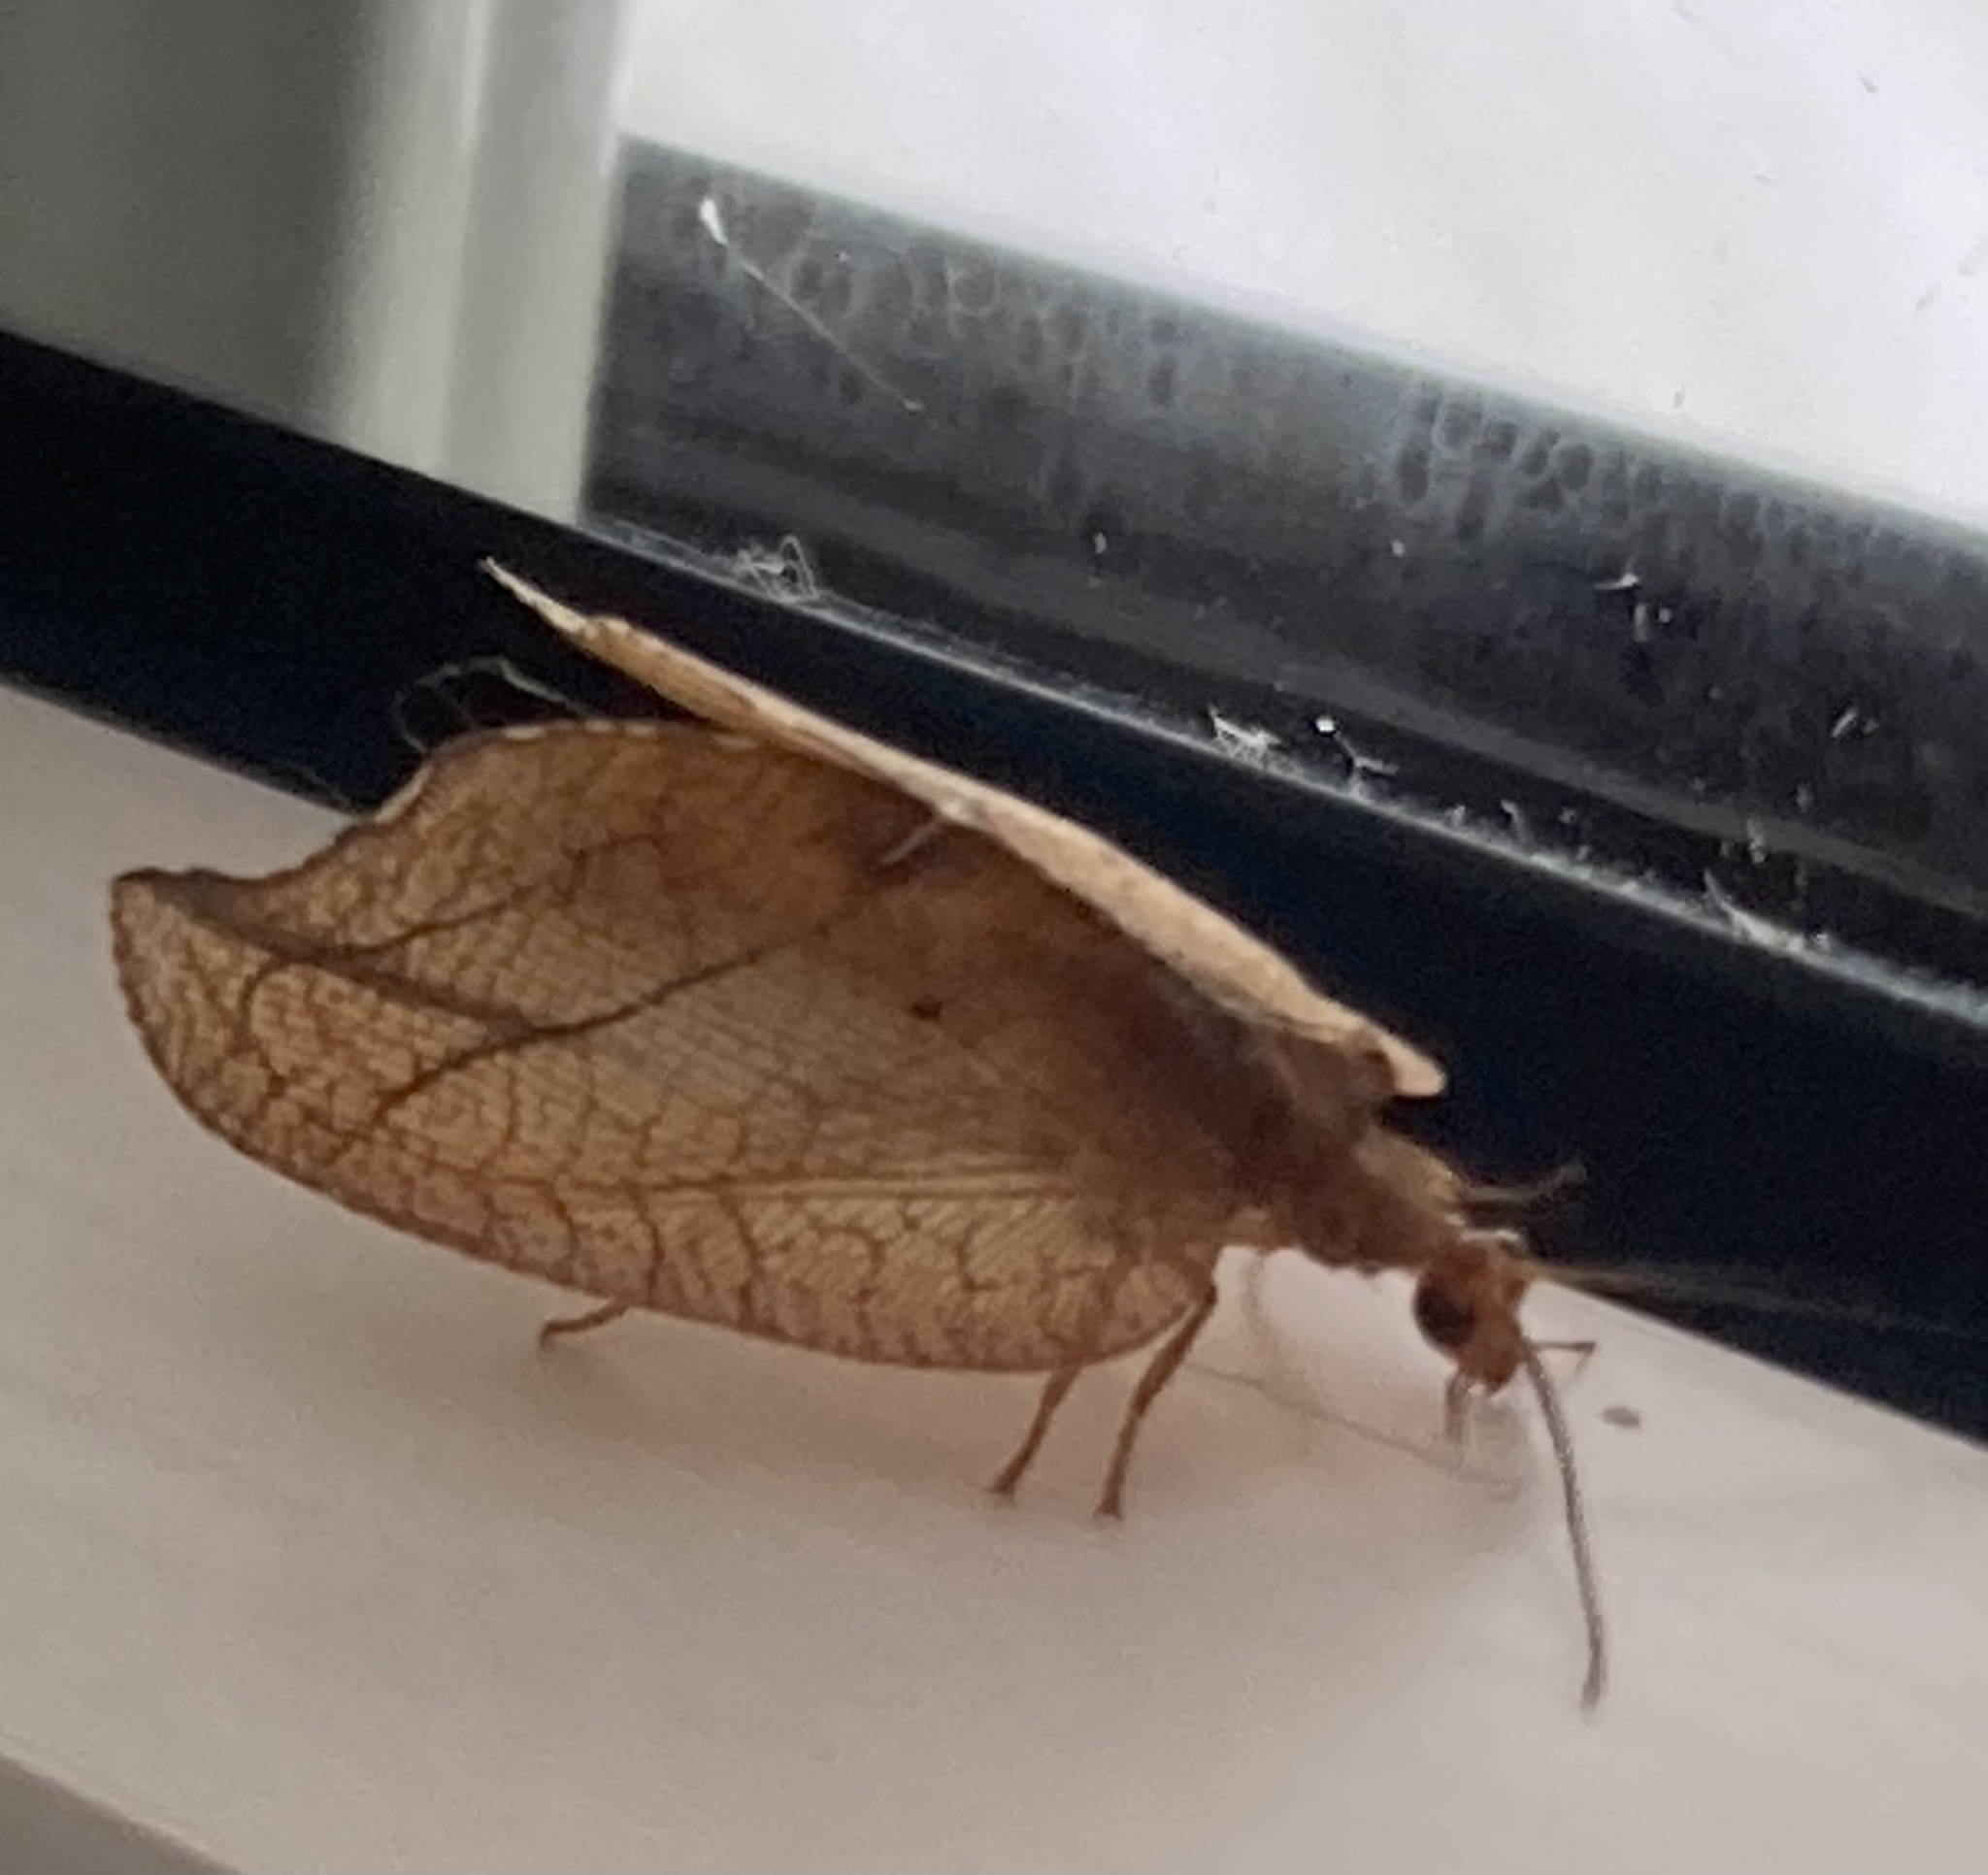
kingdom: Animalia
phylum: Arthropoda
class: Insecta
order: Neuroptera
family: Hemerobiidae
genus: Drepanepteryx
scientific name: Drepanepteryx phalaenoides
